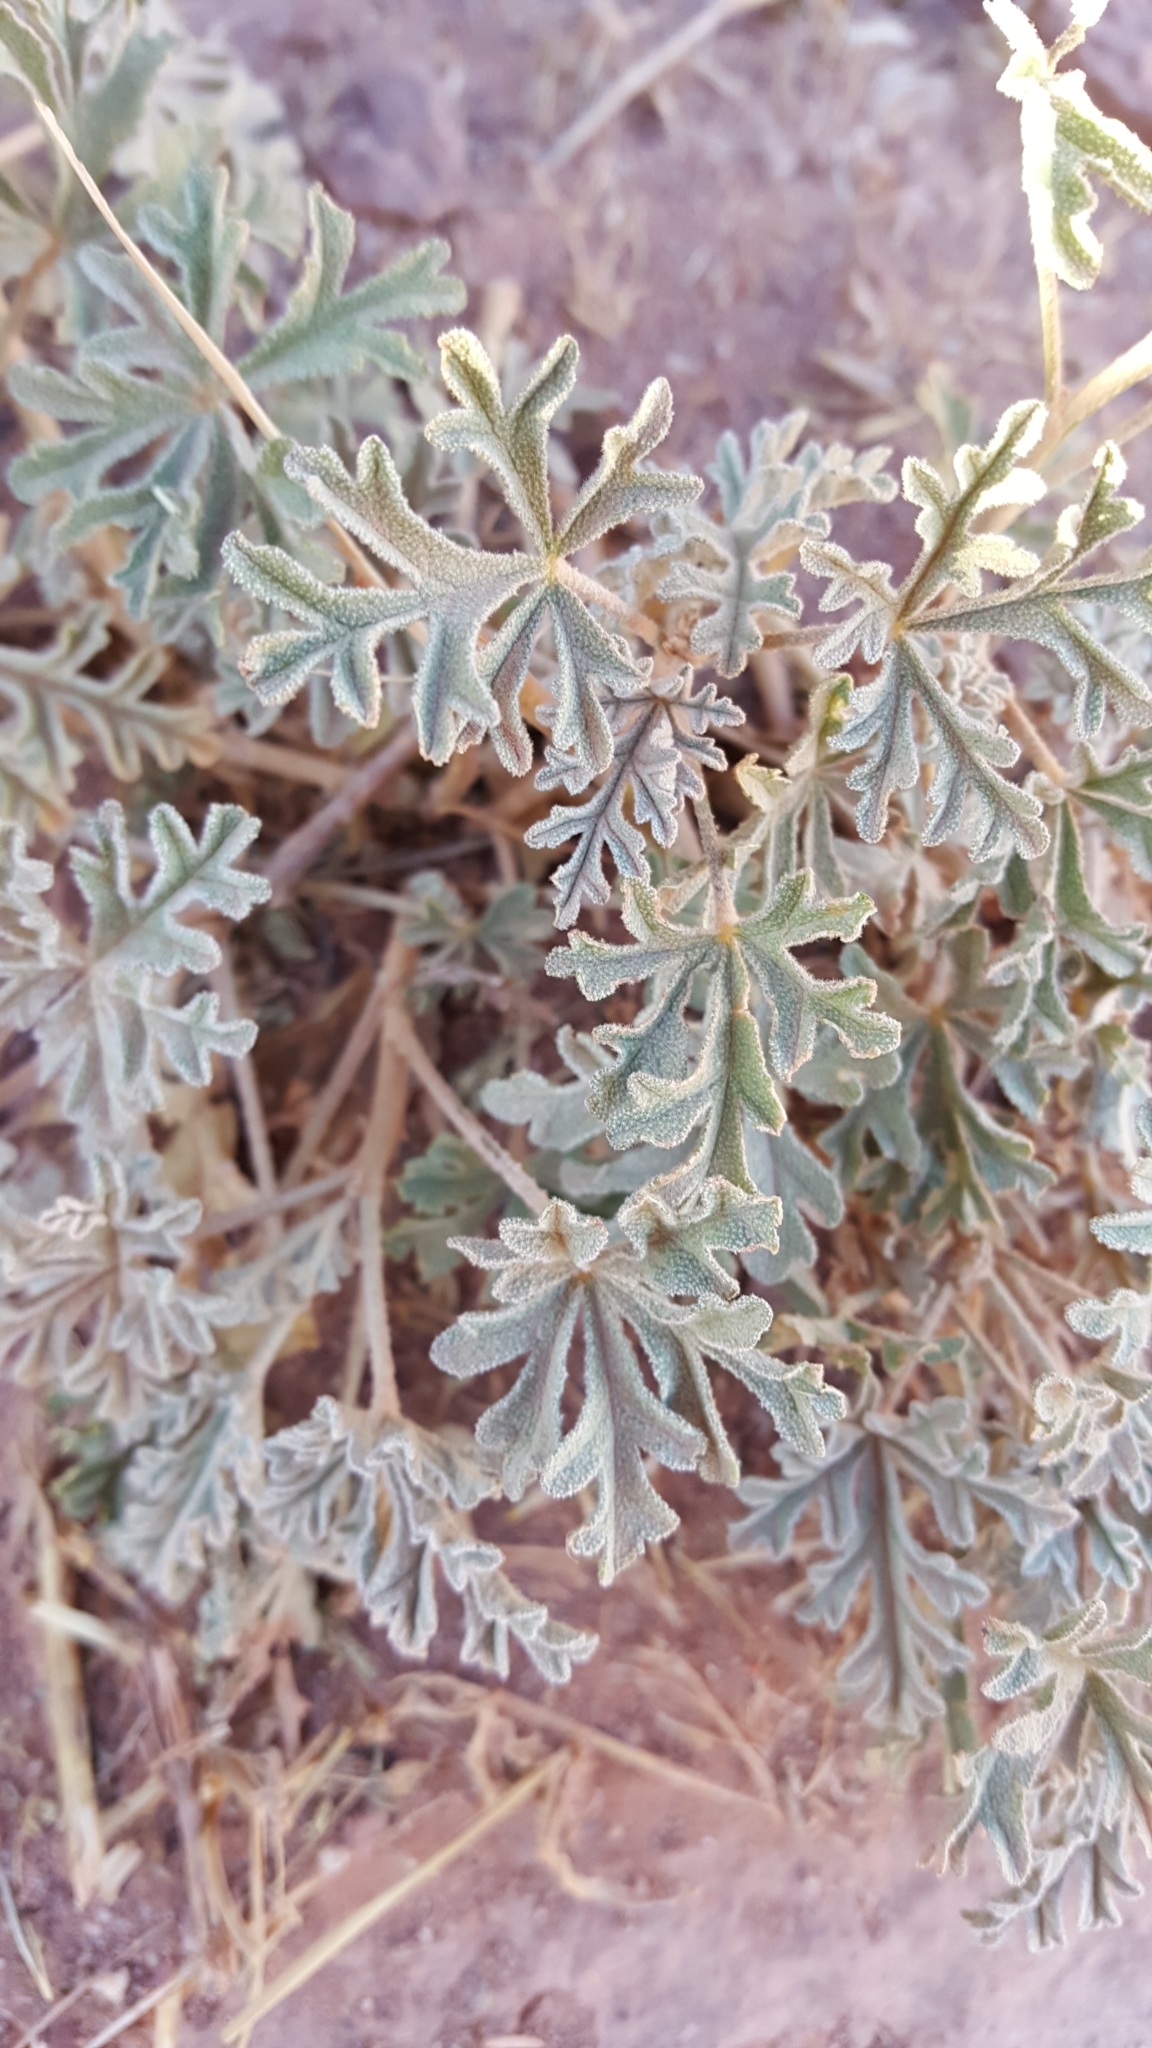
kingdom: Plantae
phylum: Tracheophyta
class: Magnoliopsida
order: Malvales
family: Malvaceae
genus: Sphaeralcea
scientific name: Sphaeralcea grossulariifolia
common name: Current-leaf globe-mallow
